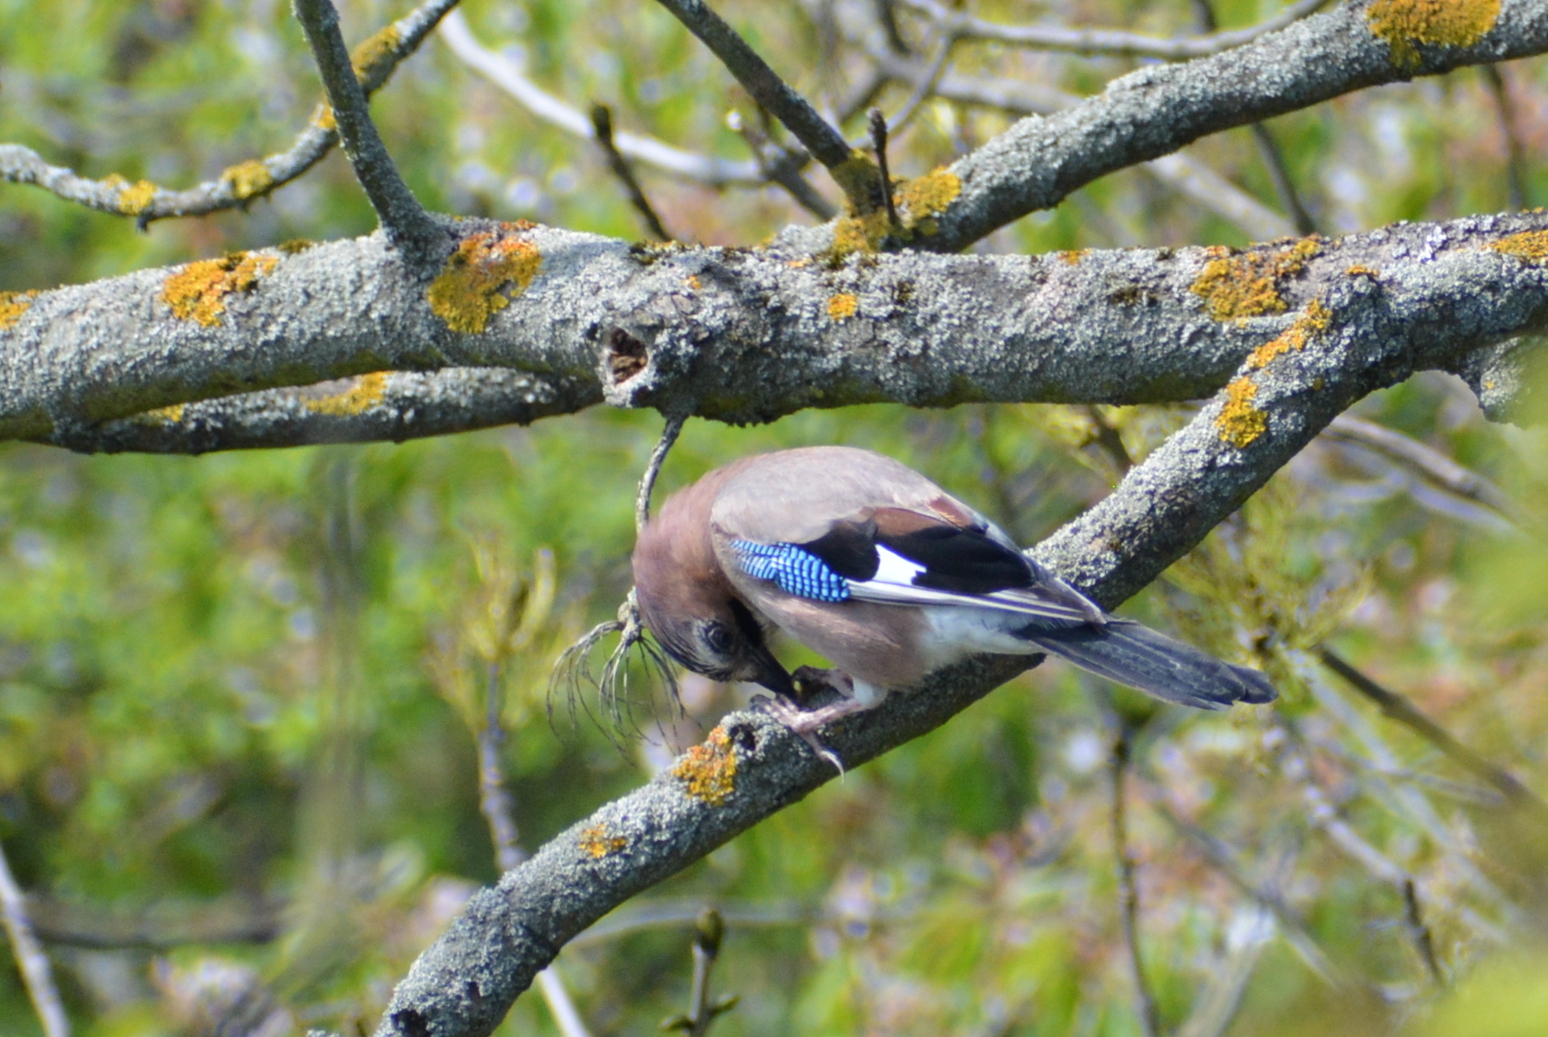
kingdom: Animalia
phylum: Chordata
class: Aves
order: Passeriformes
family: Corvidae
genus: Garrulus
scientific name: Garrulus glandarius
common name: Eurasian jay
